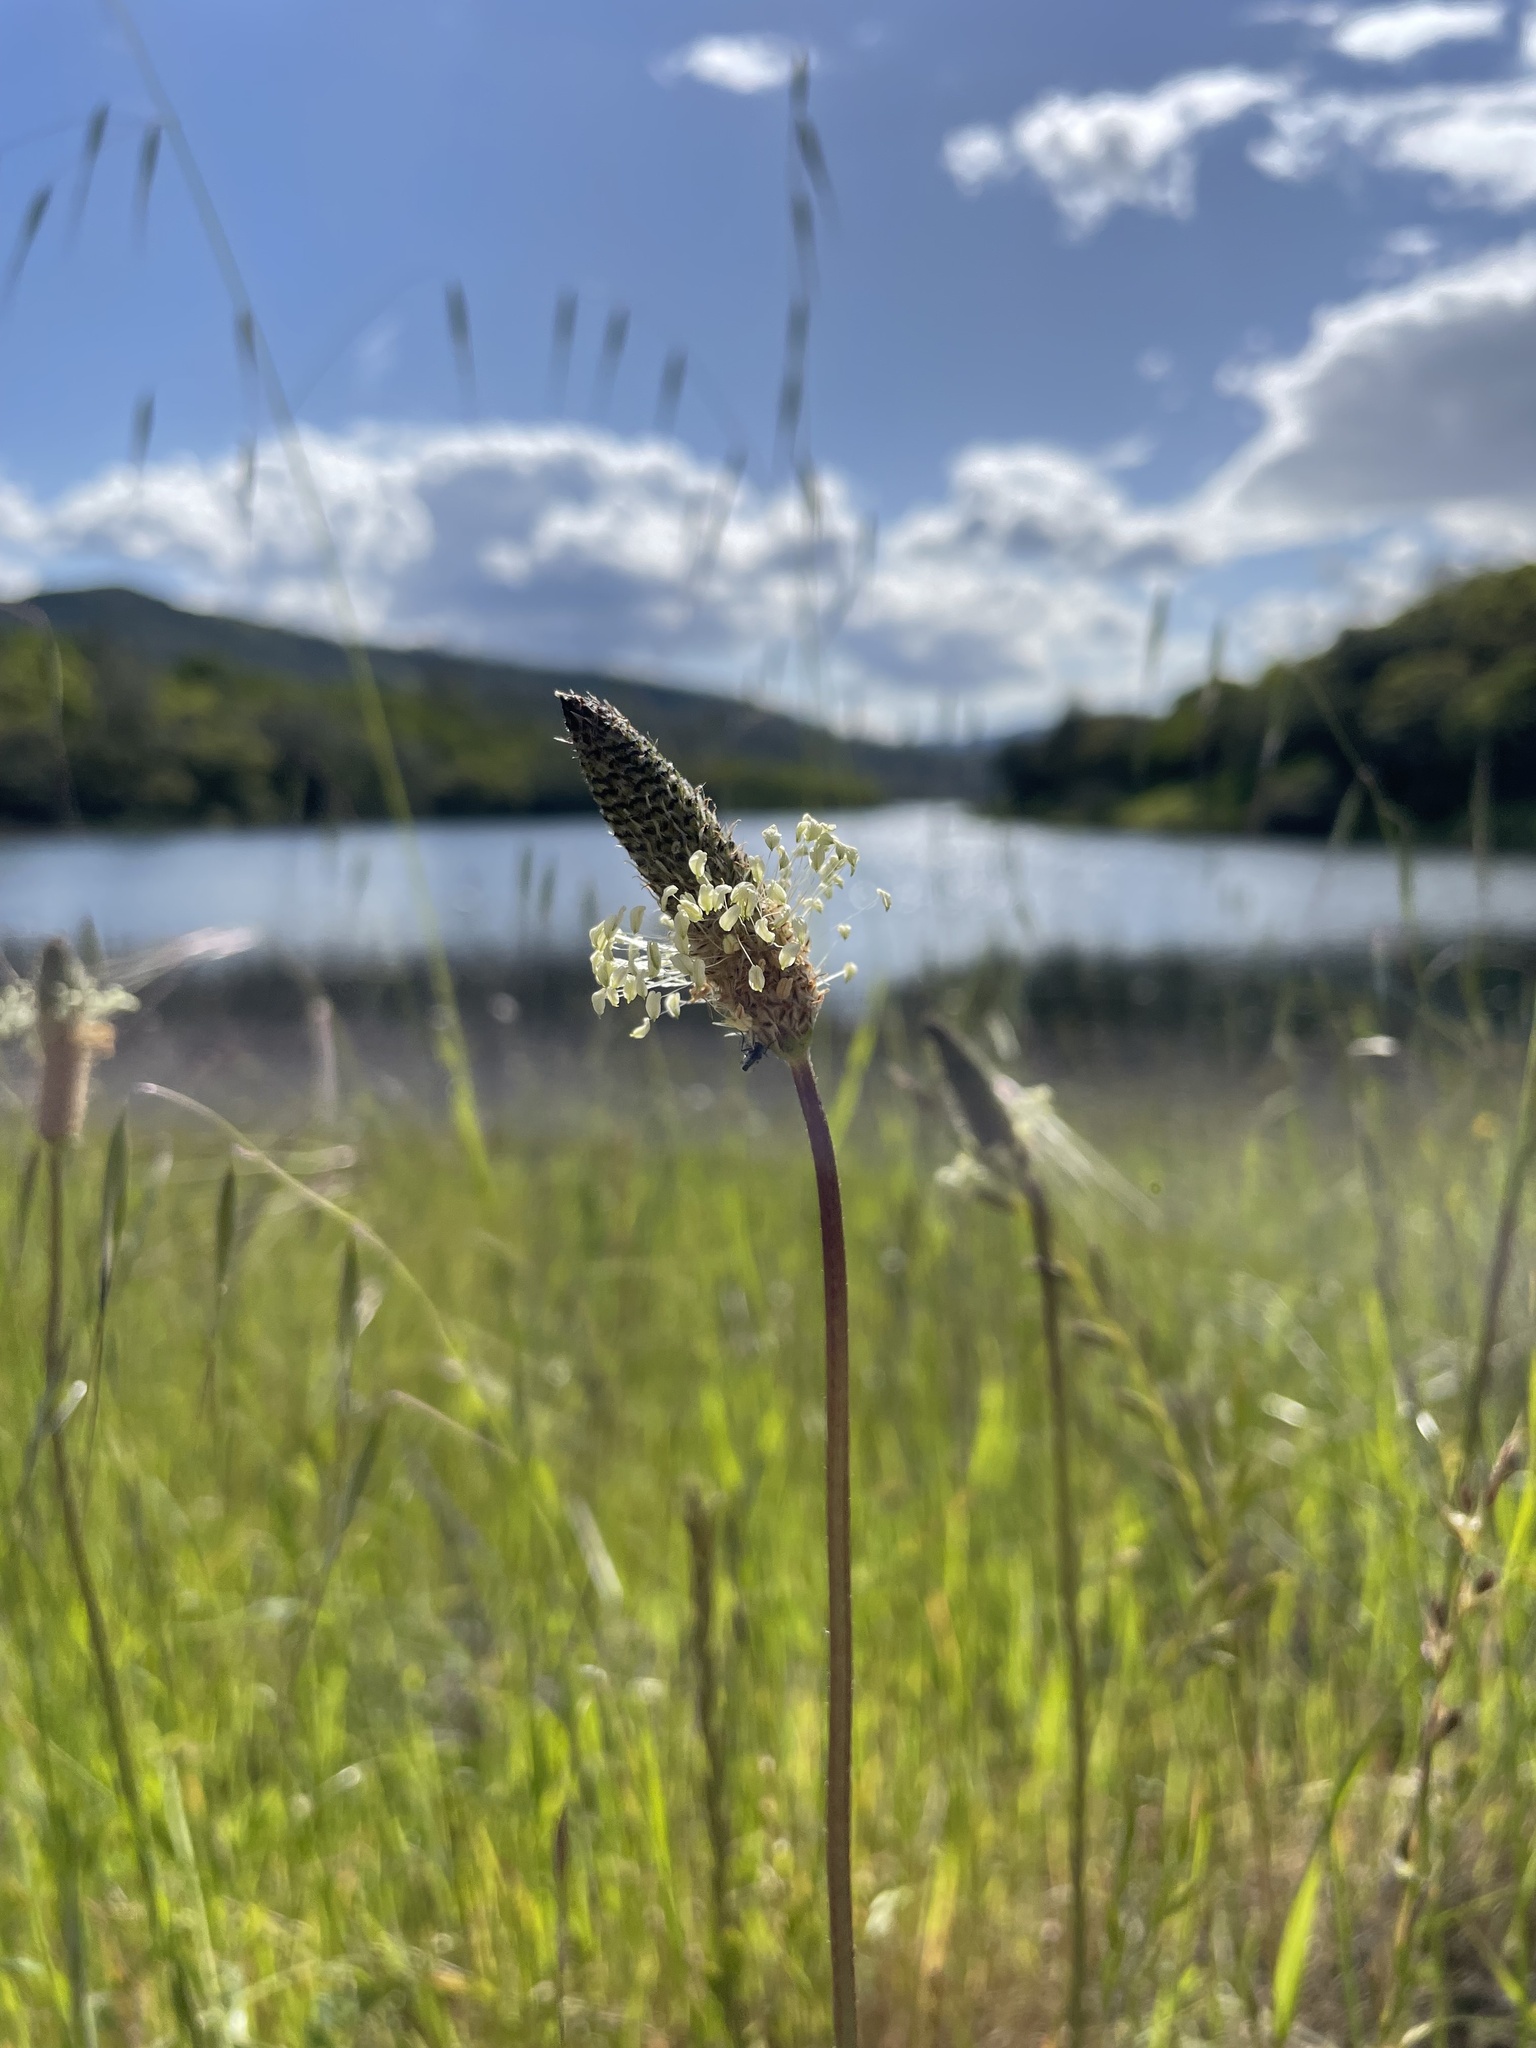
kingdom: Plantae
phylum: Tracheophyta
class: Magnoliopsida
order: Lamiales
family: Plantaginaceae
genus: Plantago
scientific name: Plantago lanceolata
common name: Ribwort plantain
